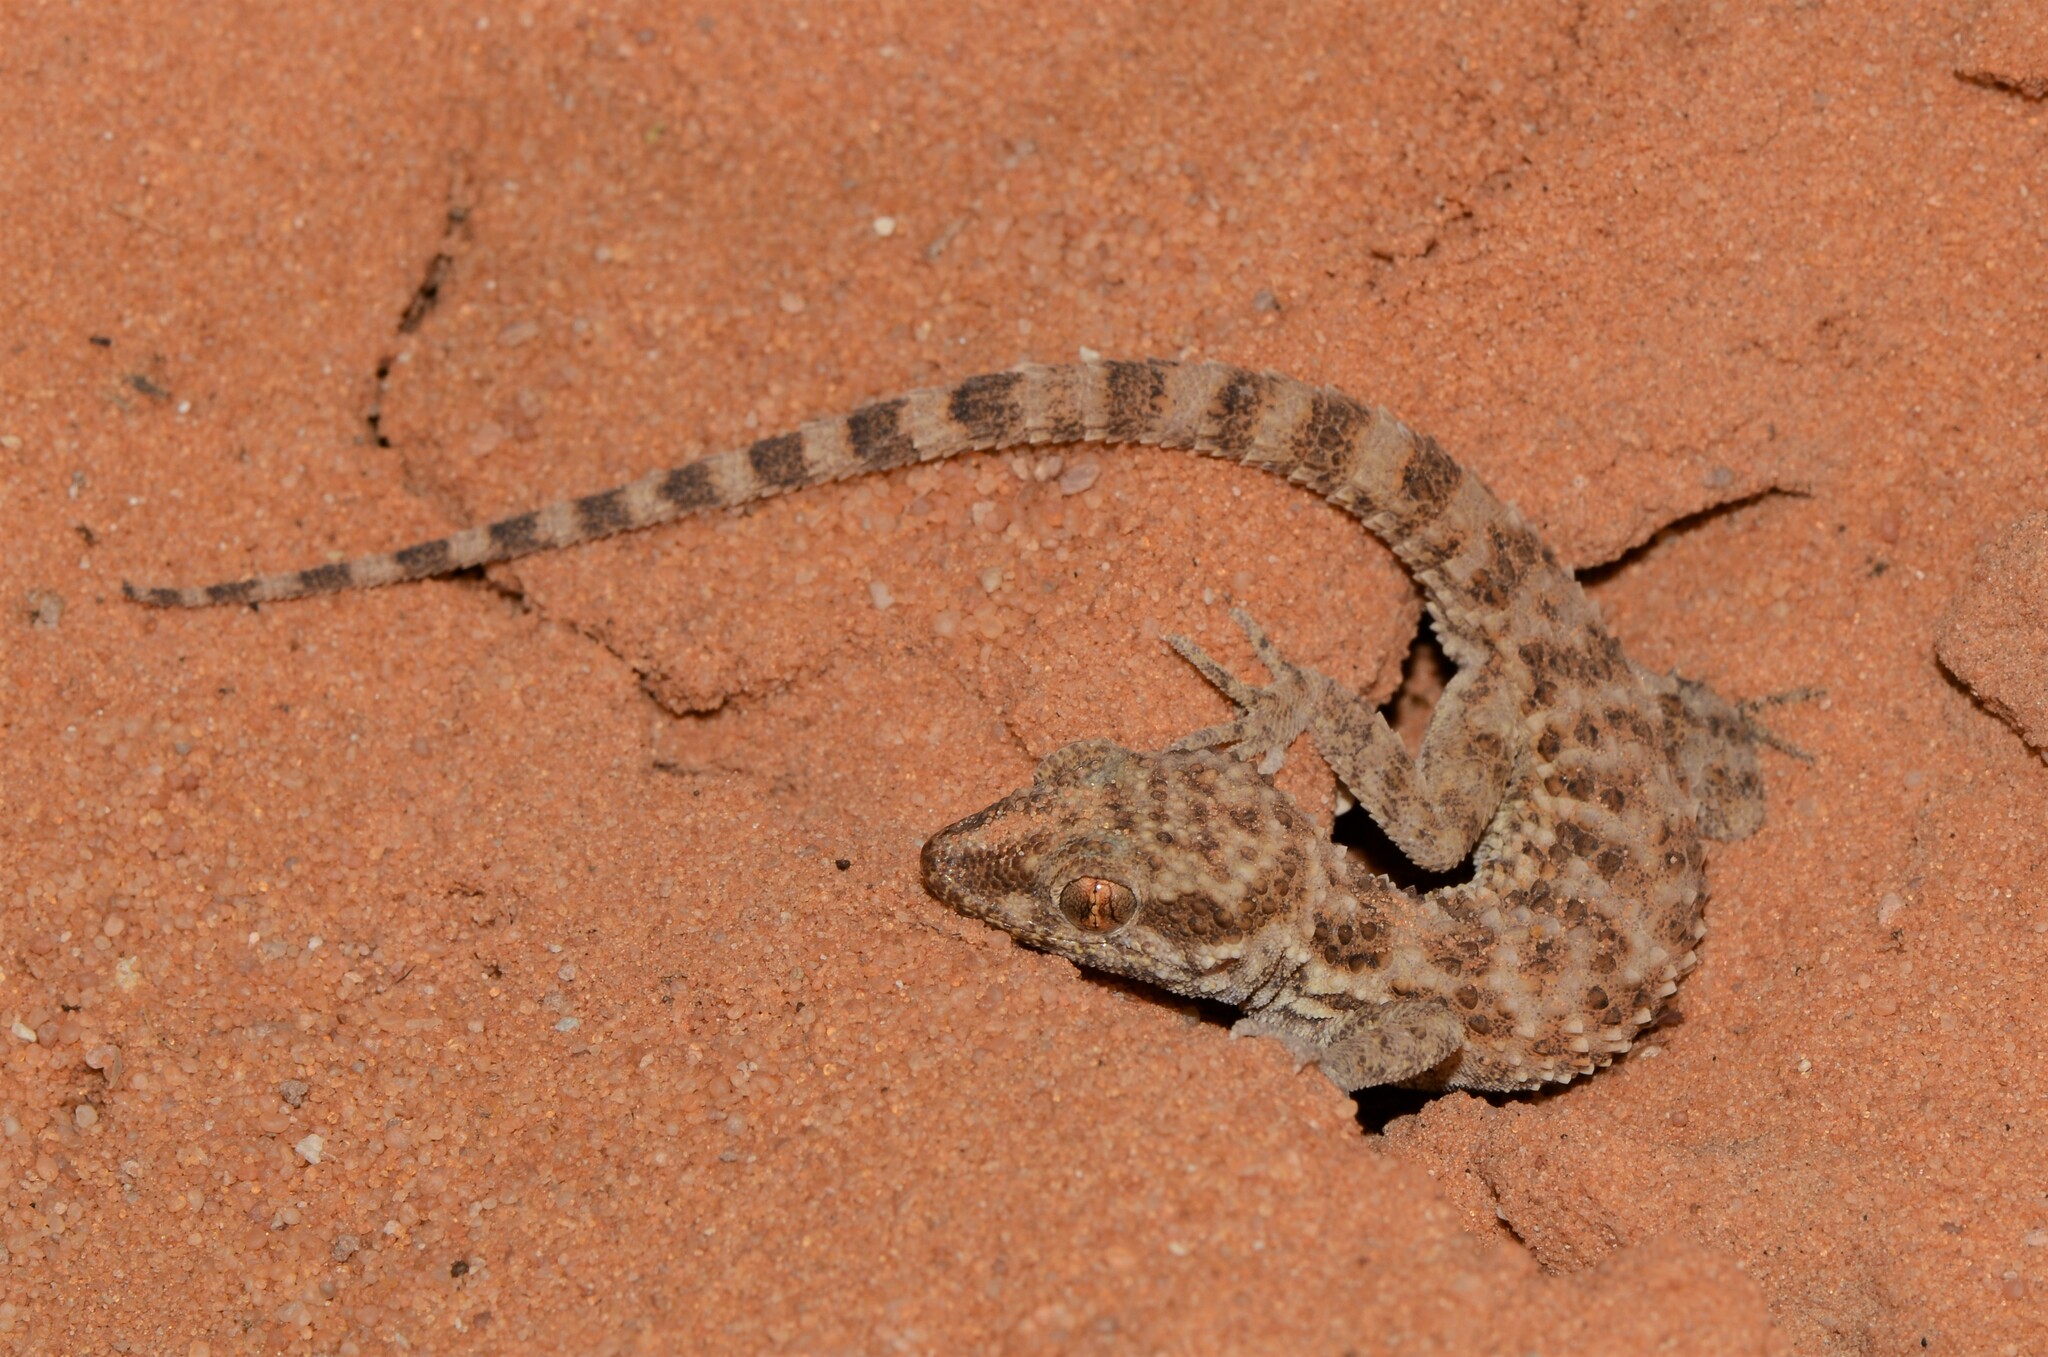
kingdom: Animalia
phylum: Chordata
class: Squamata
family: Gekkonidae
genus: Bunopus
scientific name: Bunopus tuberculatus
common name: Southern tuberculated gecko
